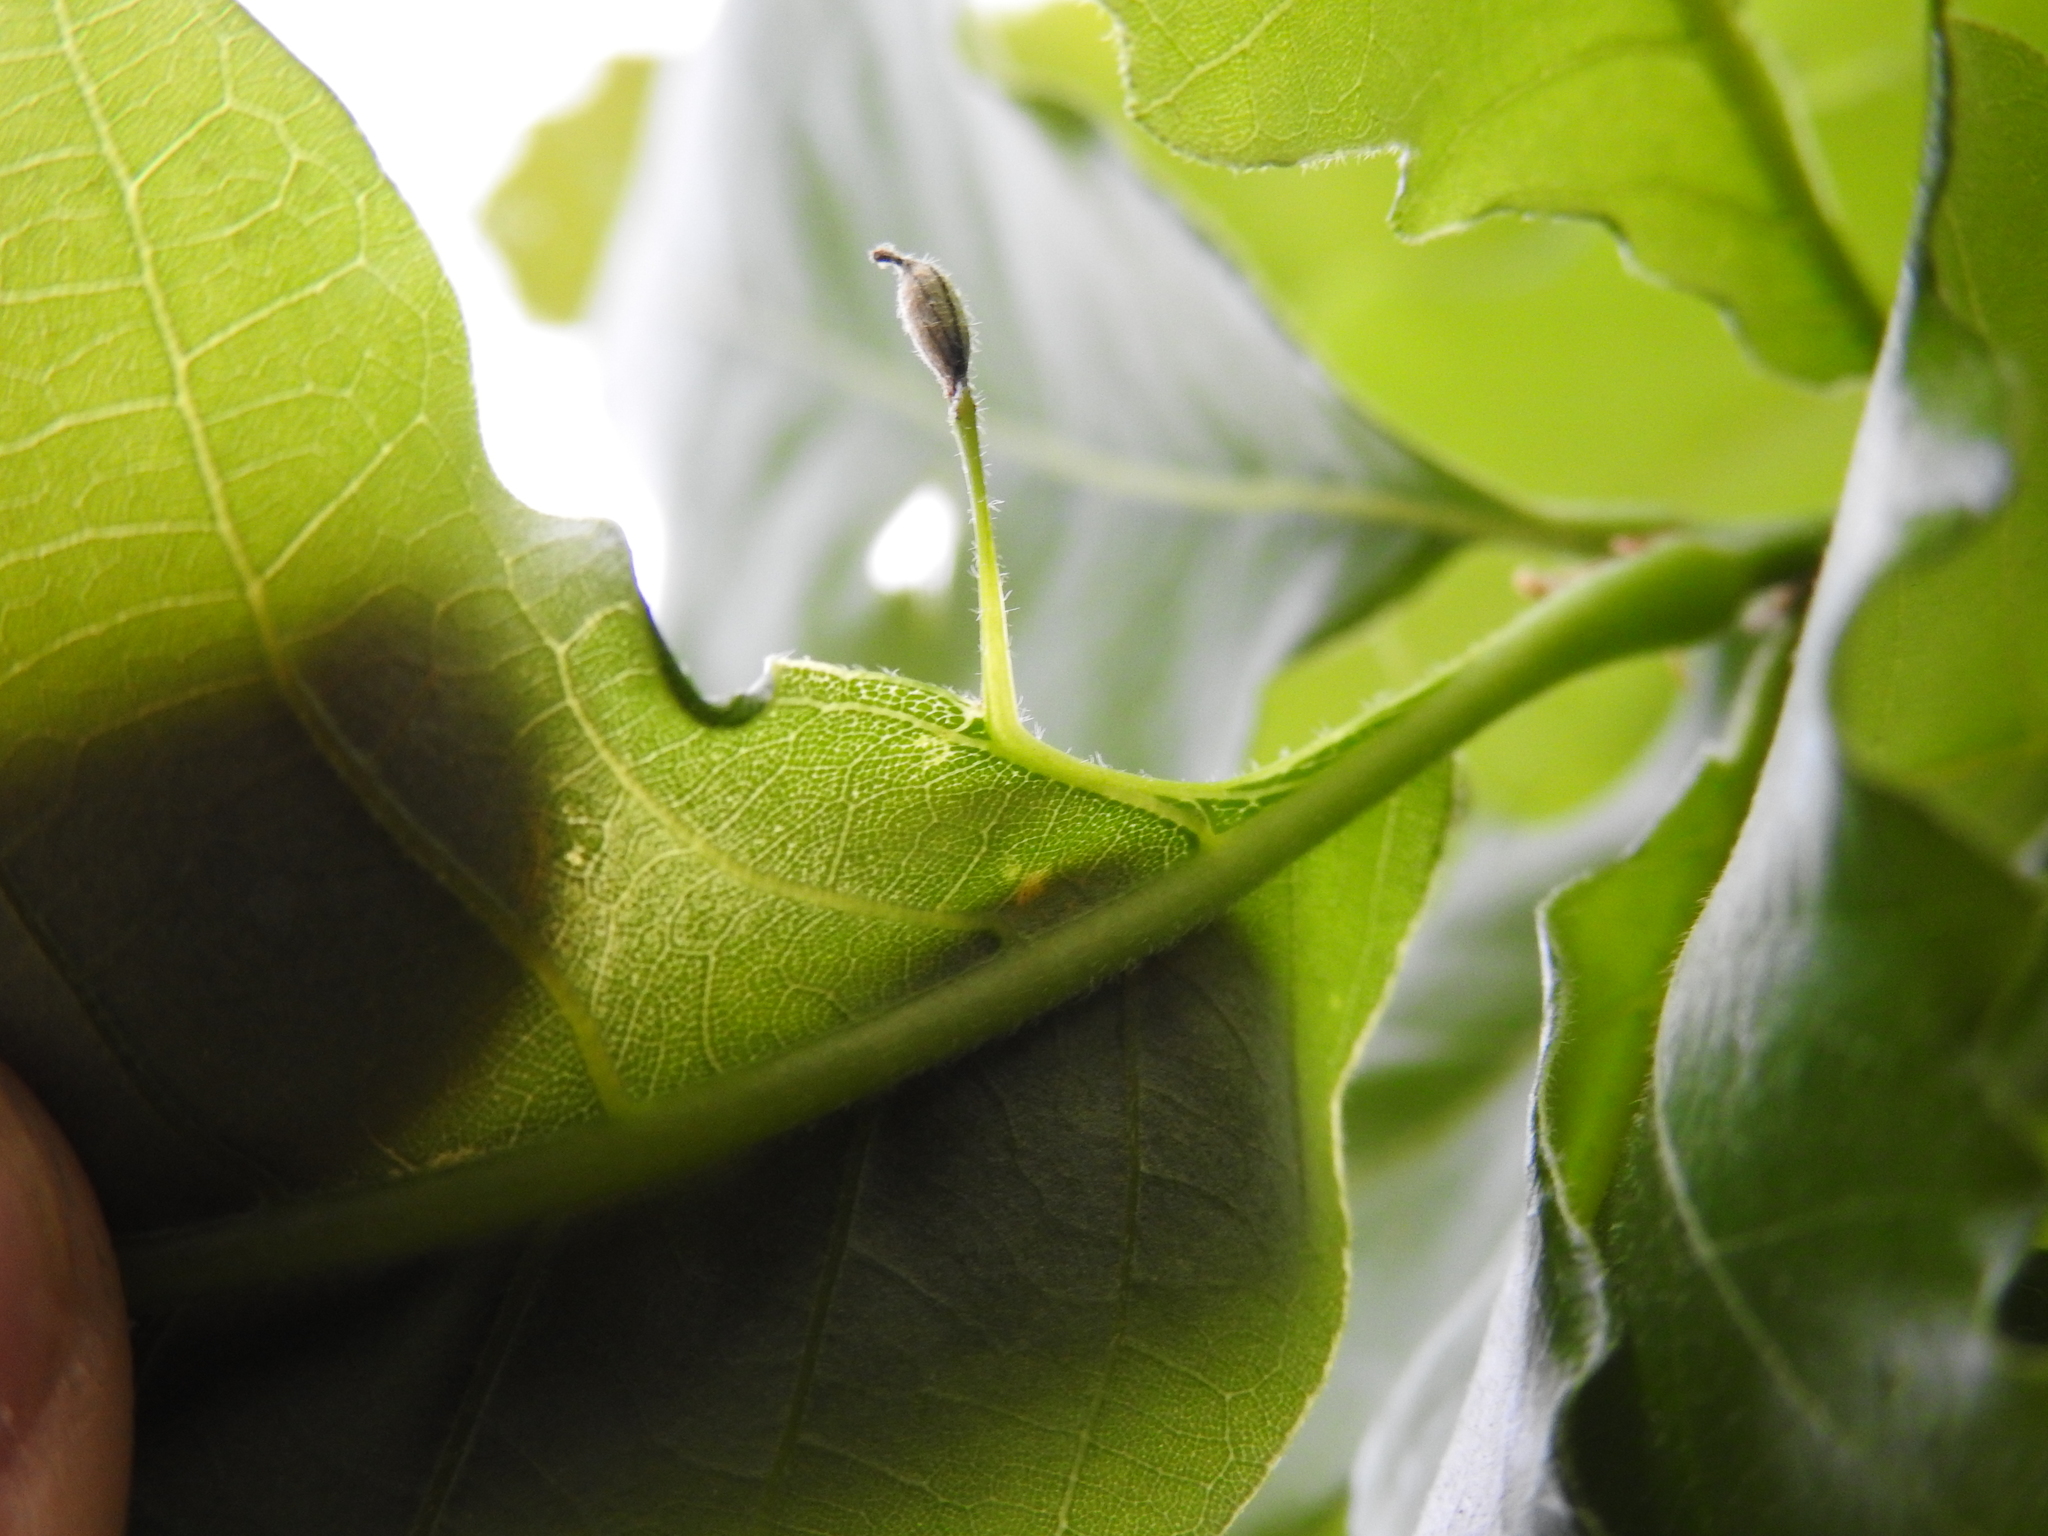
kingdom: Animalia
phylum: Arthropoda
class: Insecta
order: Hymenoptera
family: Cynipidae
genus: Andricus
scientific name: Andricus
